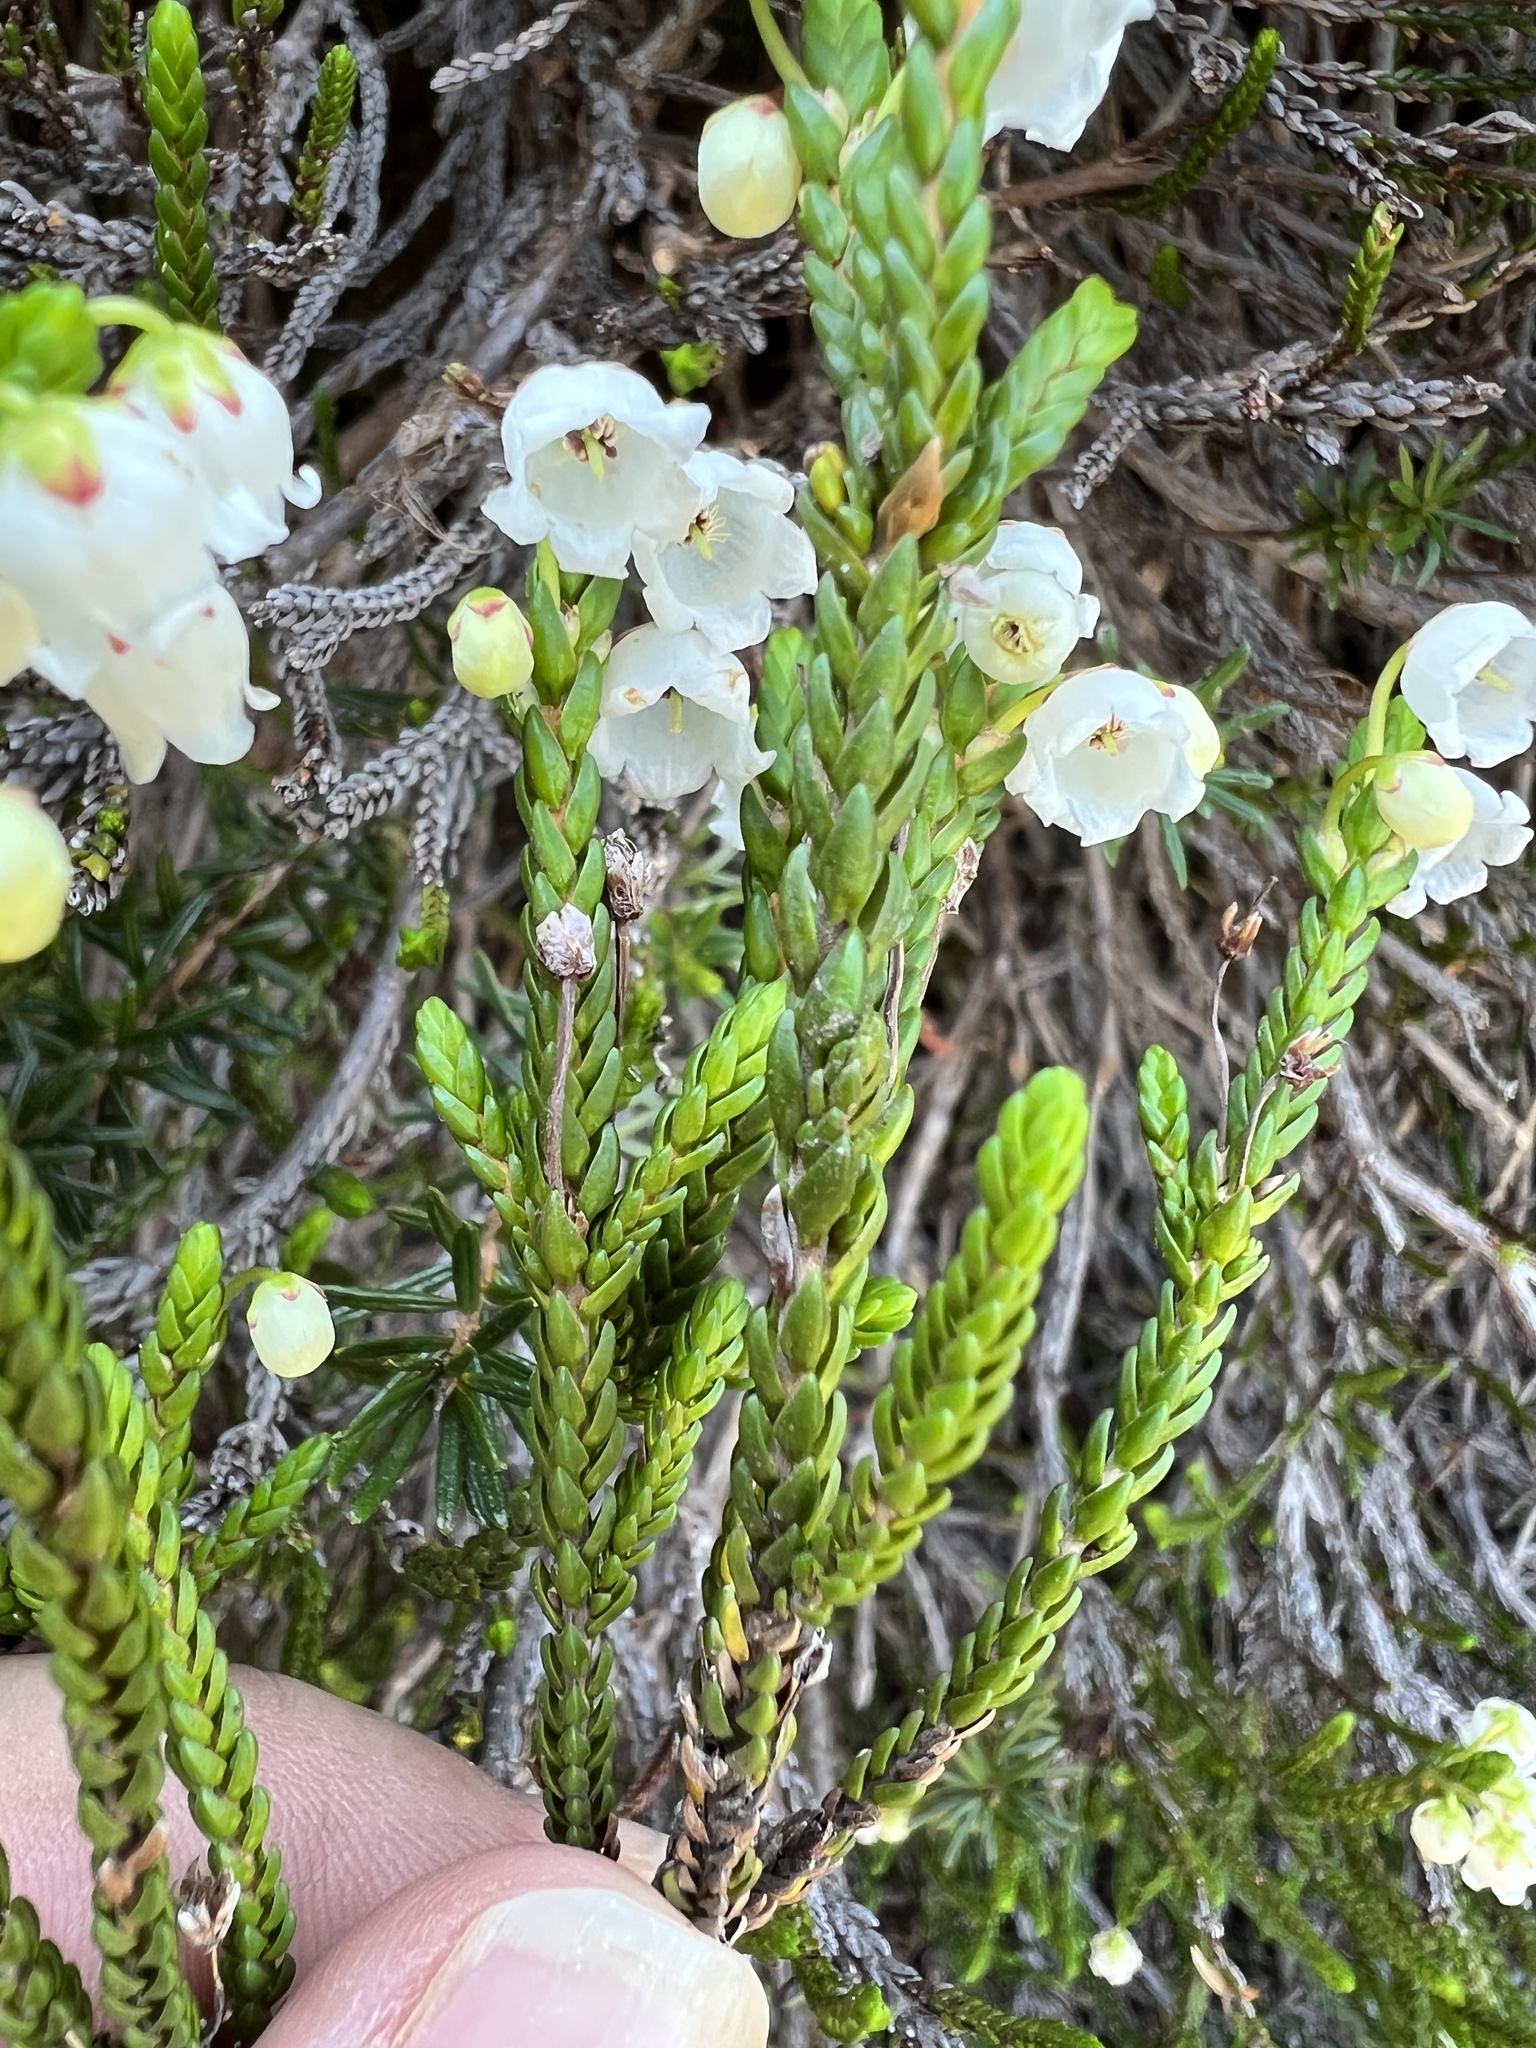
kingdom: Plantae
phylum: Tracheophyta
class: Magnoliopsida
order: Ericales
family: Ericaceae
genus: Cassiope
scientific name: Cassiope mertensiana
